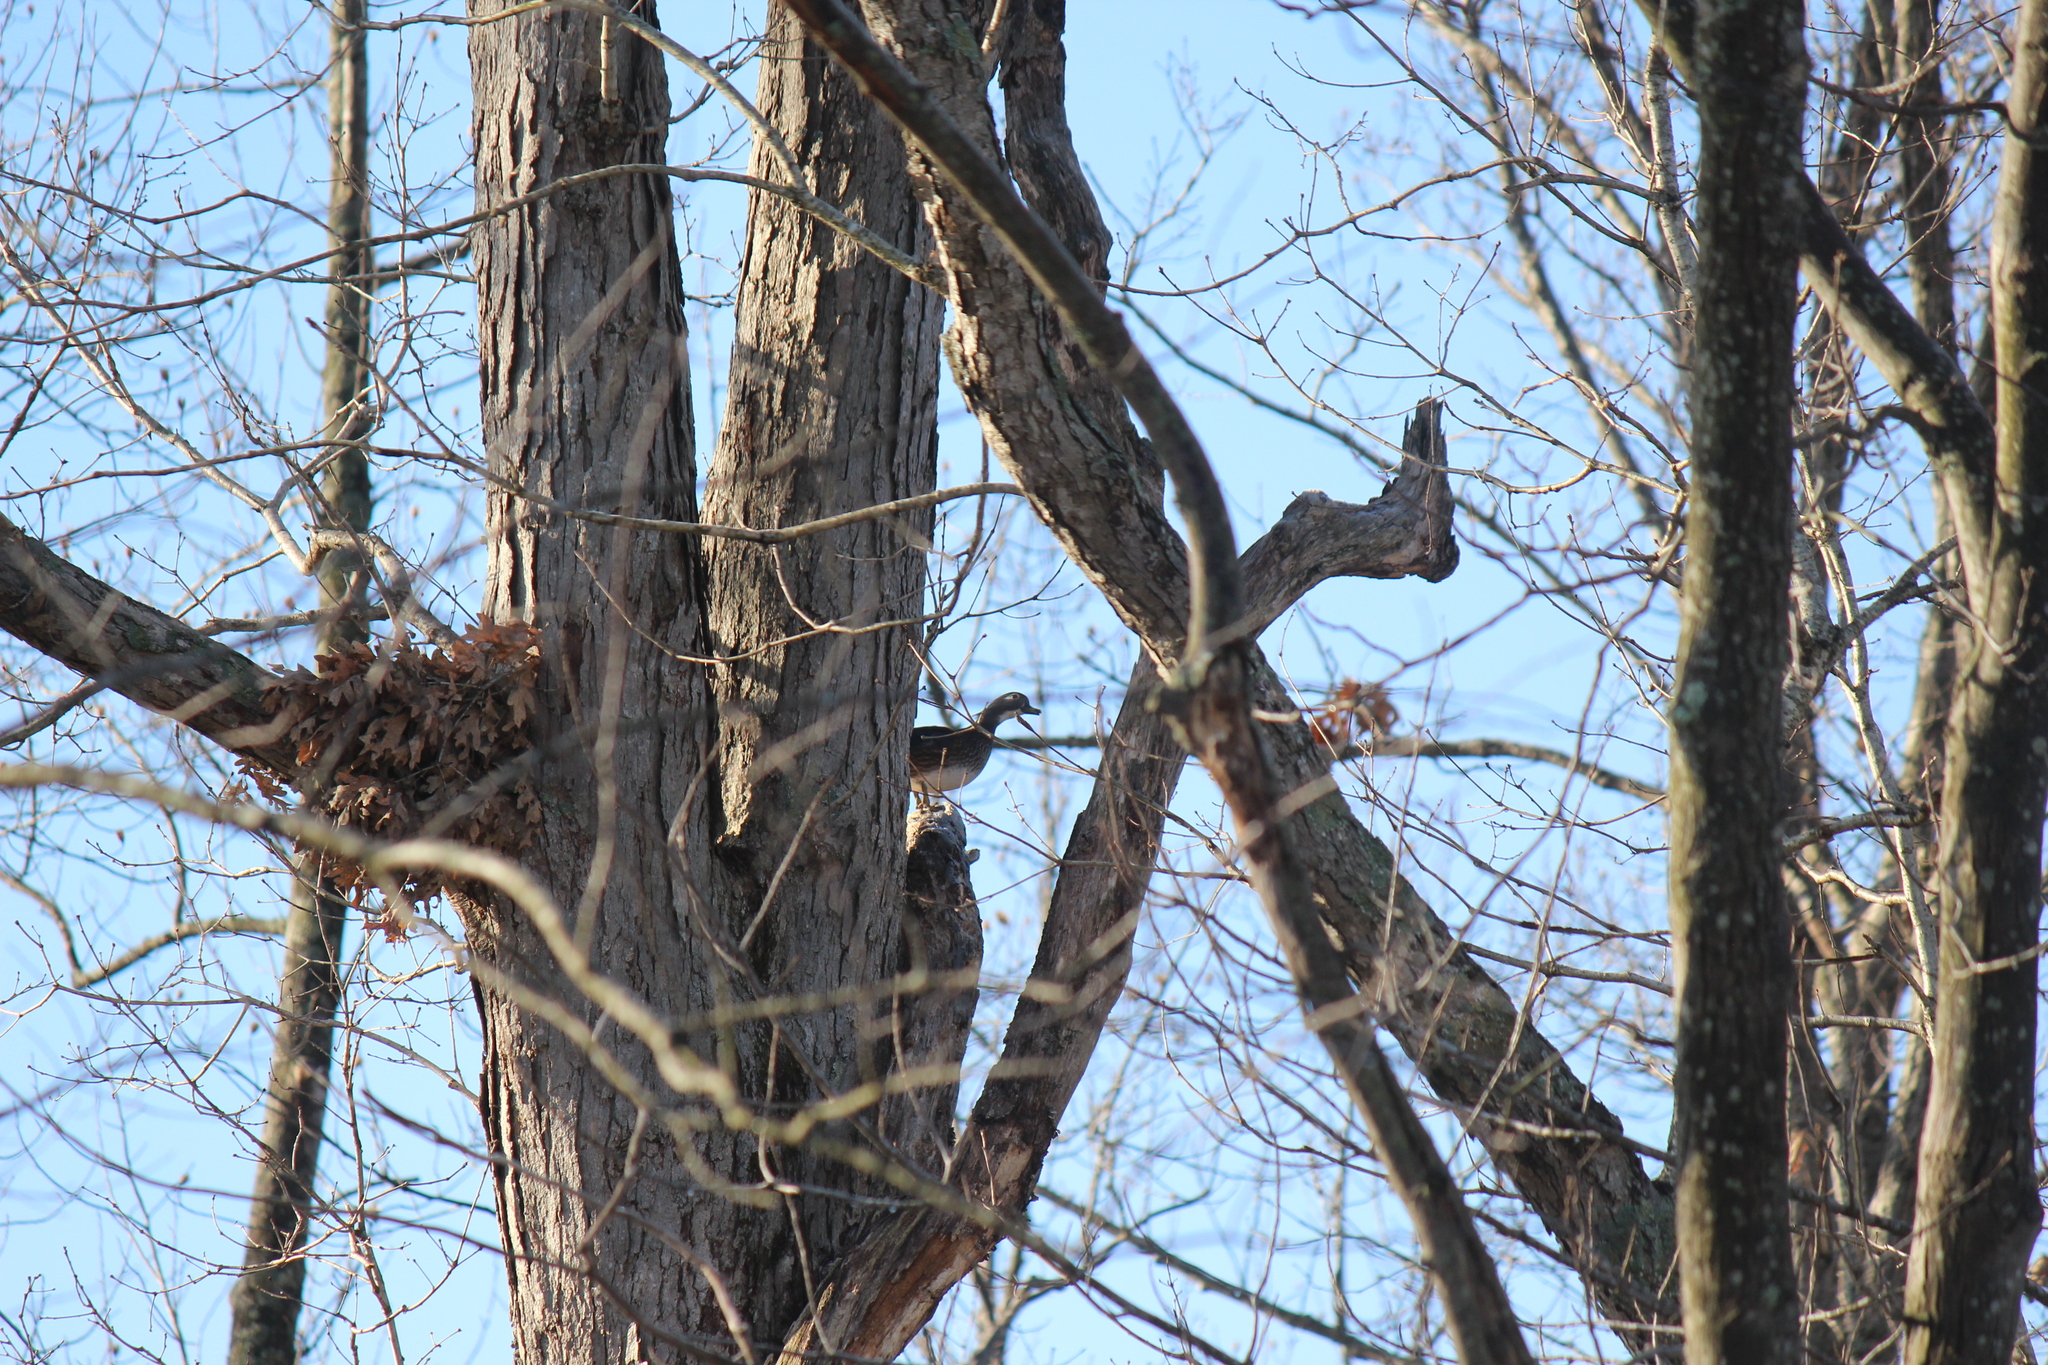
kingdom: Animalia
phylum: Chordata
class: Aves
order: Anseriformes
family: Anatidae
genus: Aix
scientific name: Aix sponsa
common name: Wood duck
